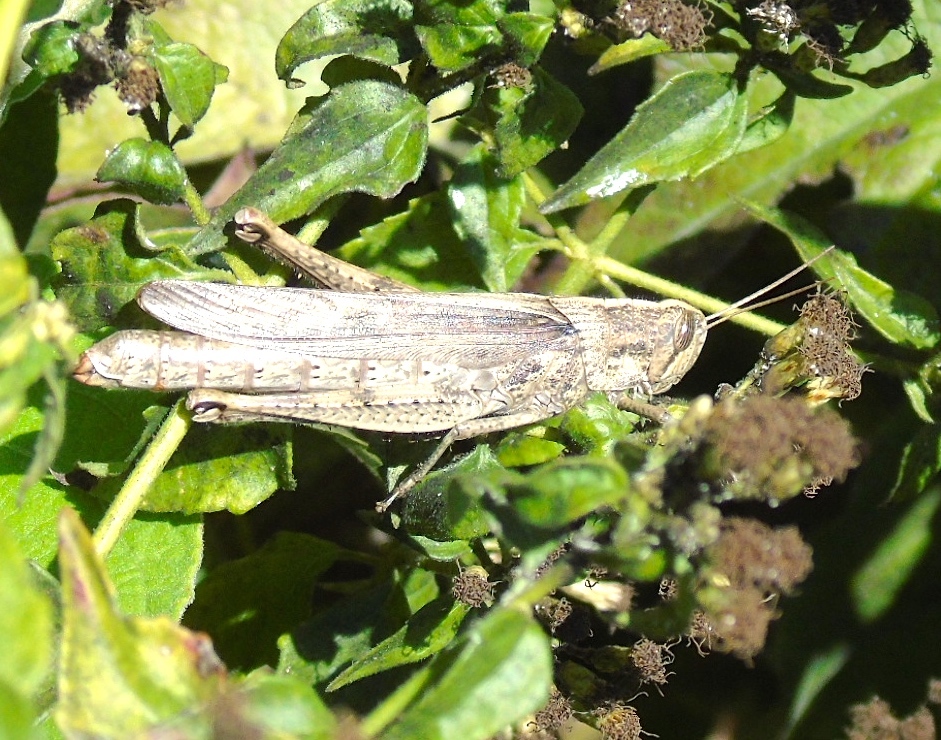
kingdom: Animalia
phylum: Arthropoda
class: Insecta
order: Orthoptera
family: Acrididae
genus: Schistocerca
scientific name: Schistocerca nitens
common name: Vagrant grasshopper
